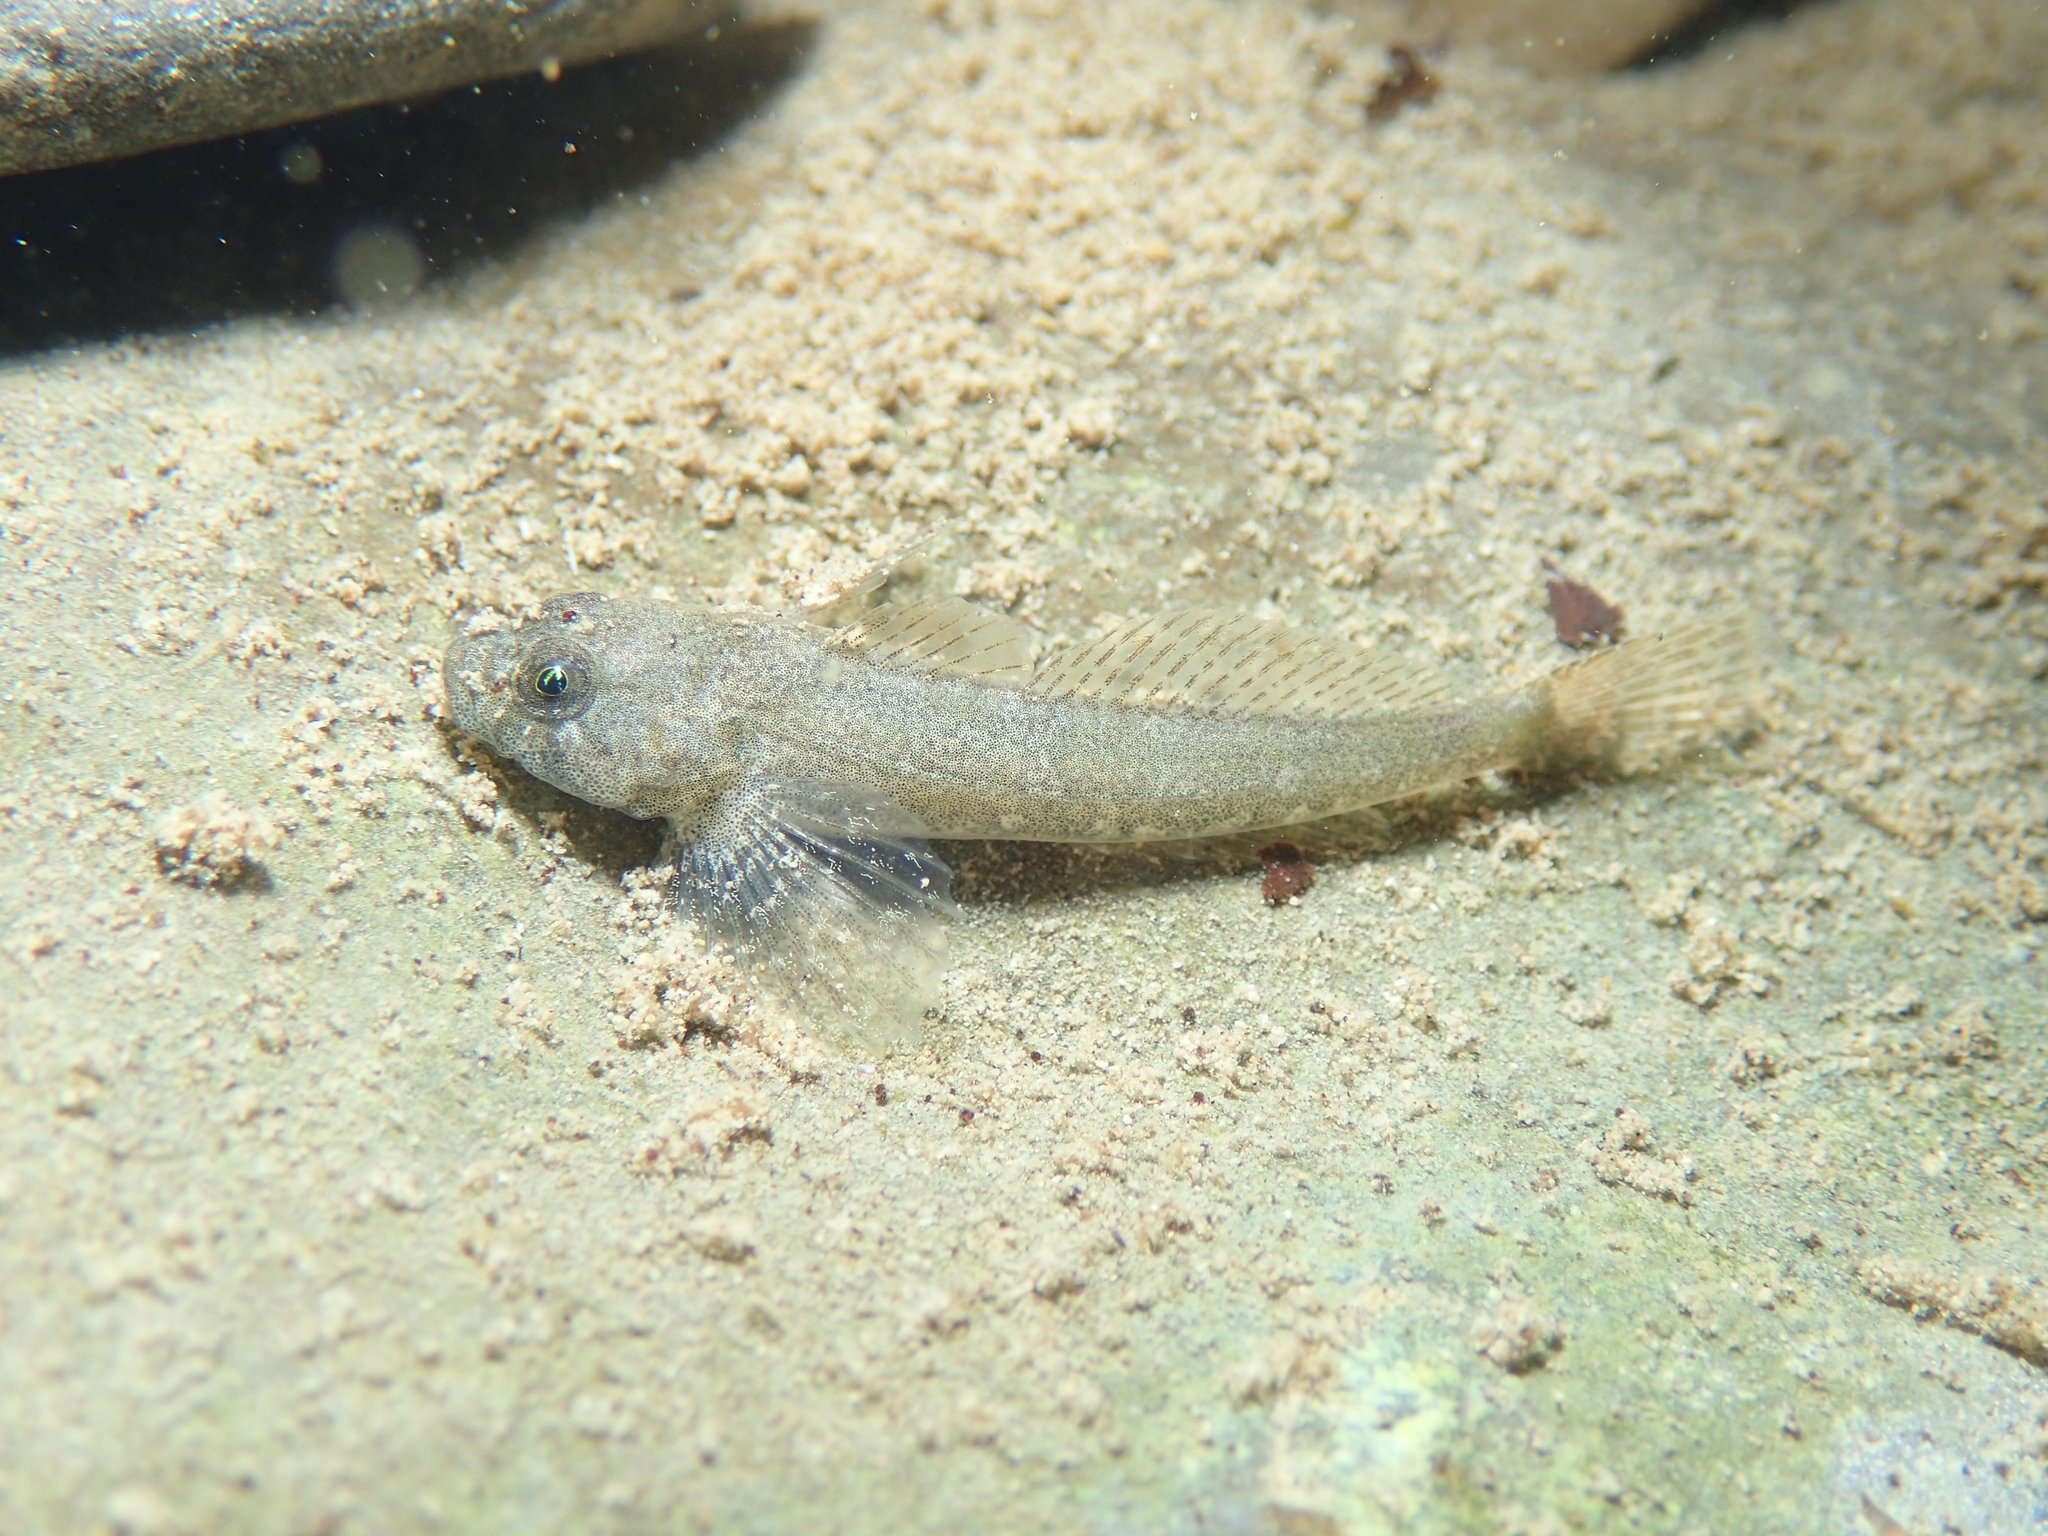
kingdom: Animalia
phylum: Chordata
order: Scorpaeniformes
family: Cottidae
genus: Cottus
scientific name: Cottus sabaudicus
